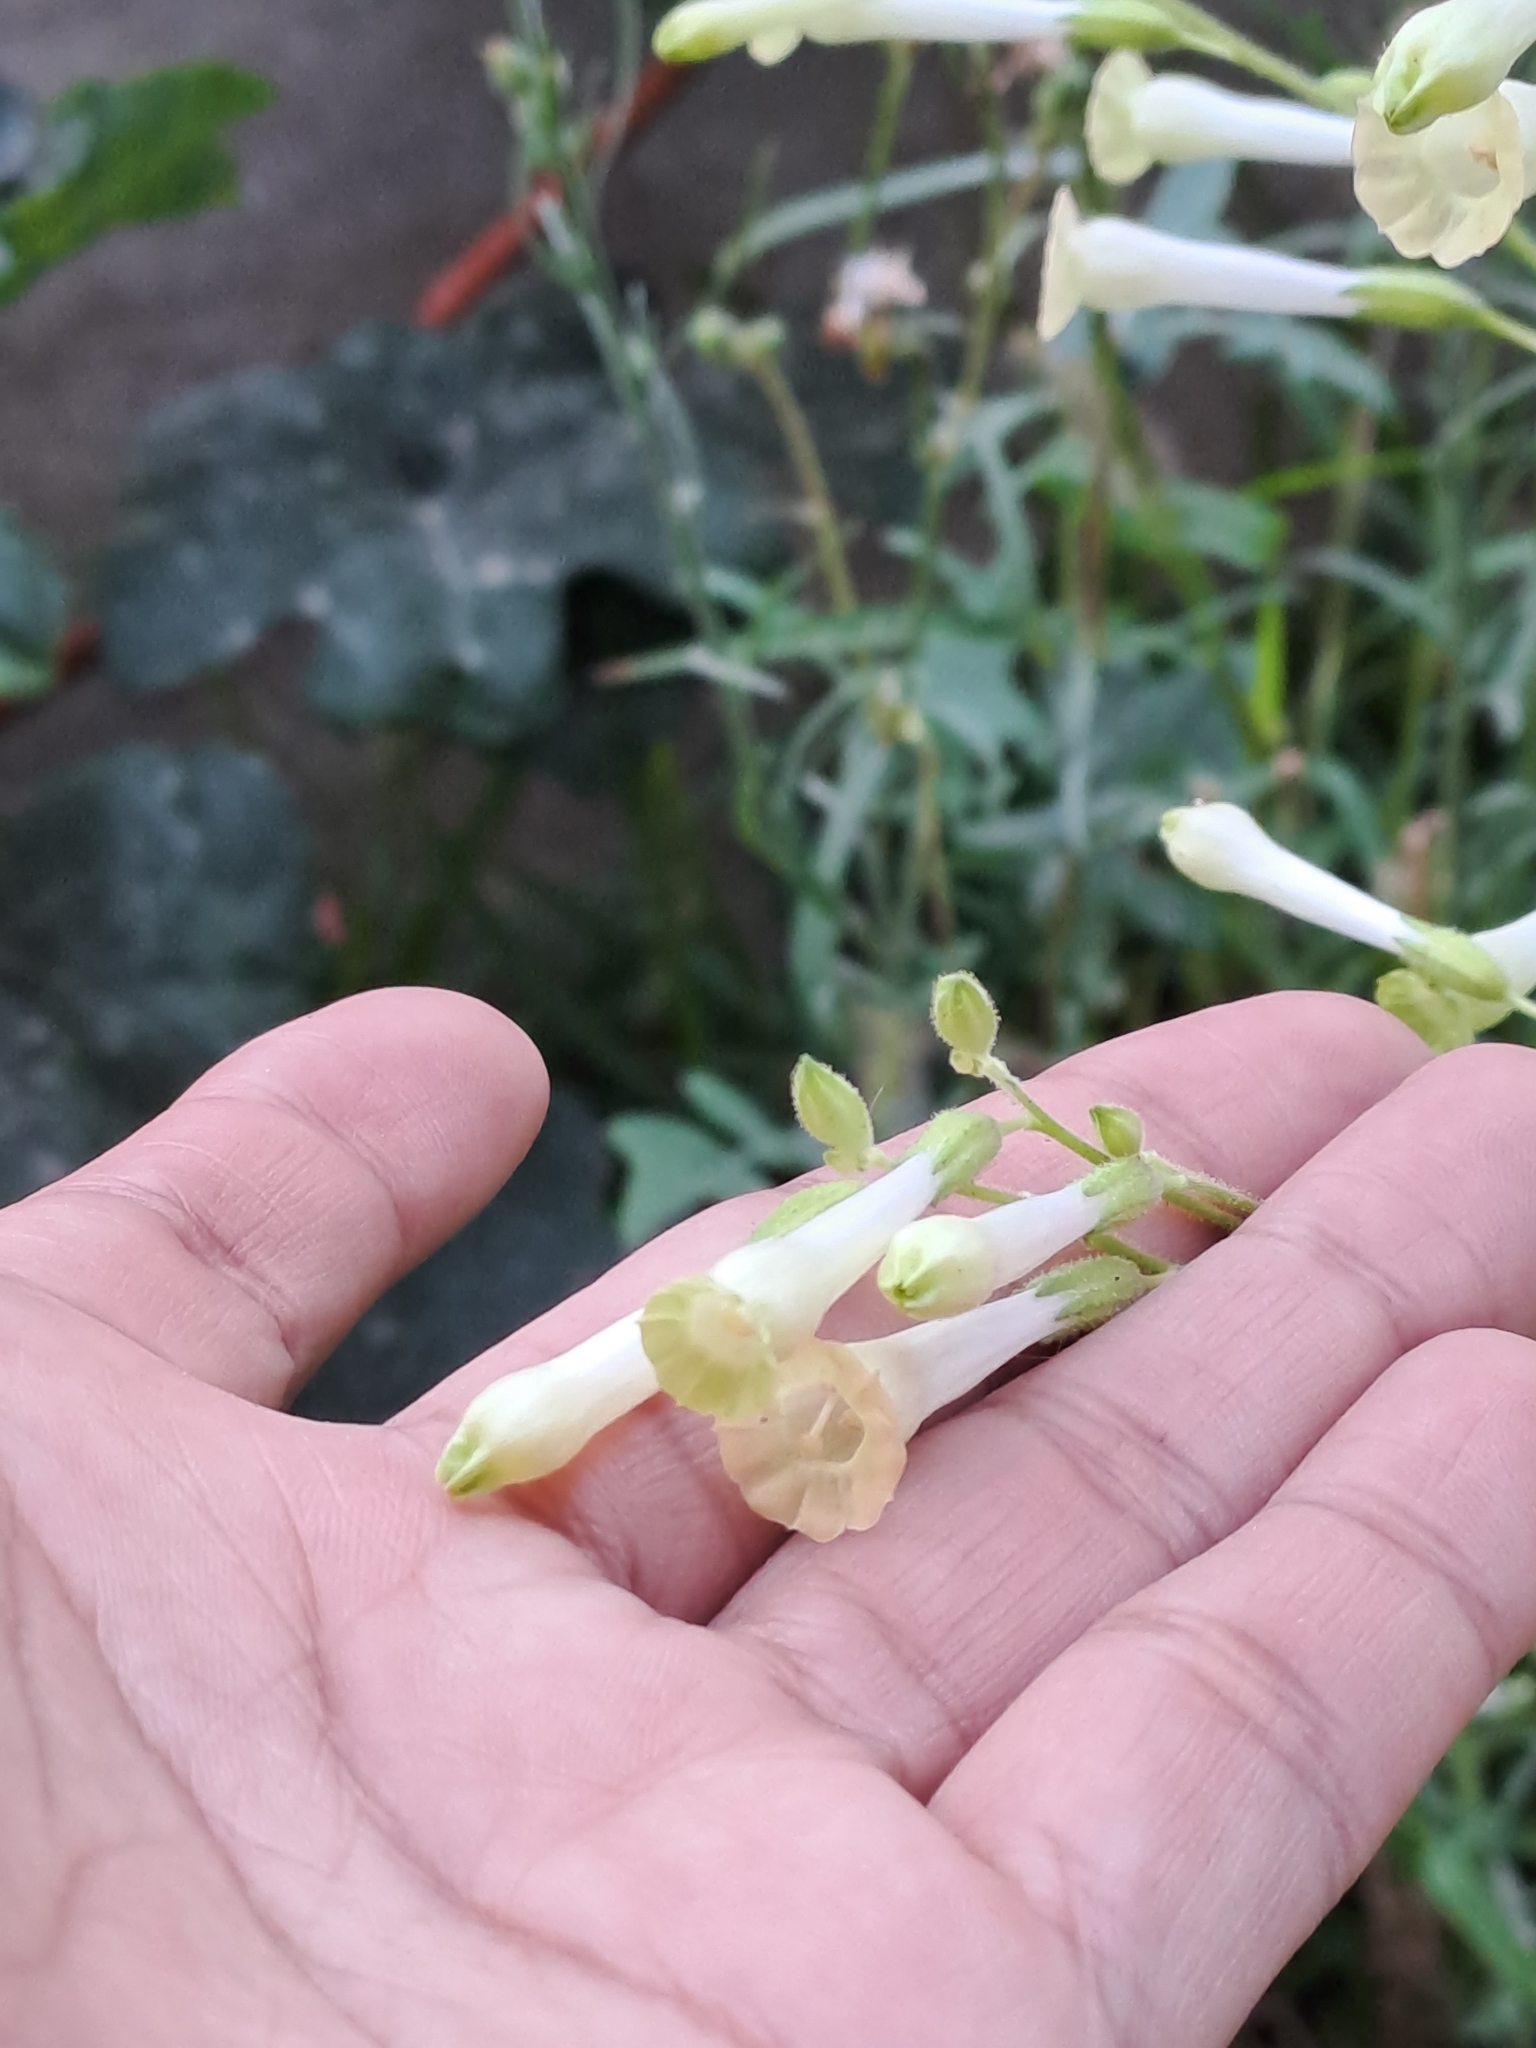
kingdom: Plantae
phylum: Tracheophyta
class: Magnoliopsida
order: Solanales
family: Solanaceae
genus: Nicotiana
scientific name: Nicotiana paniculata
